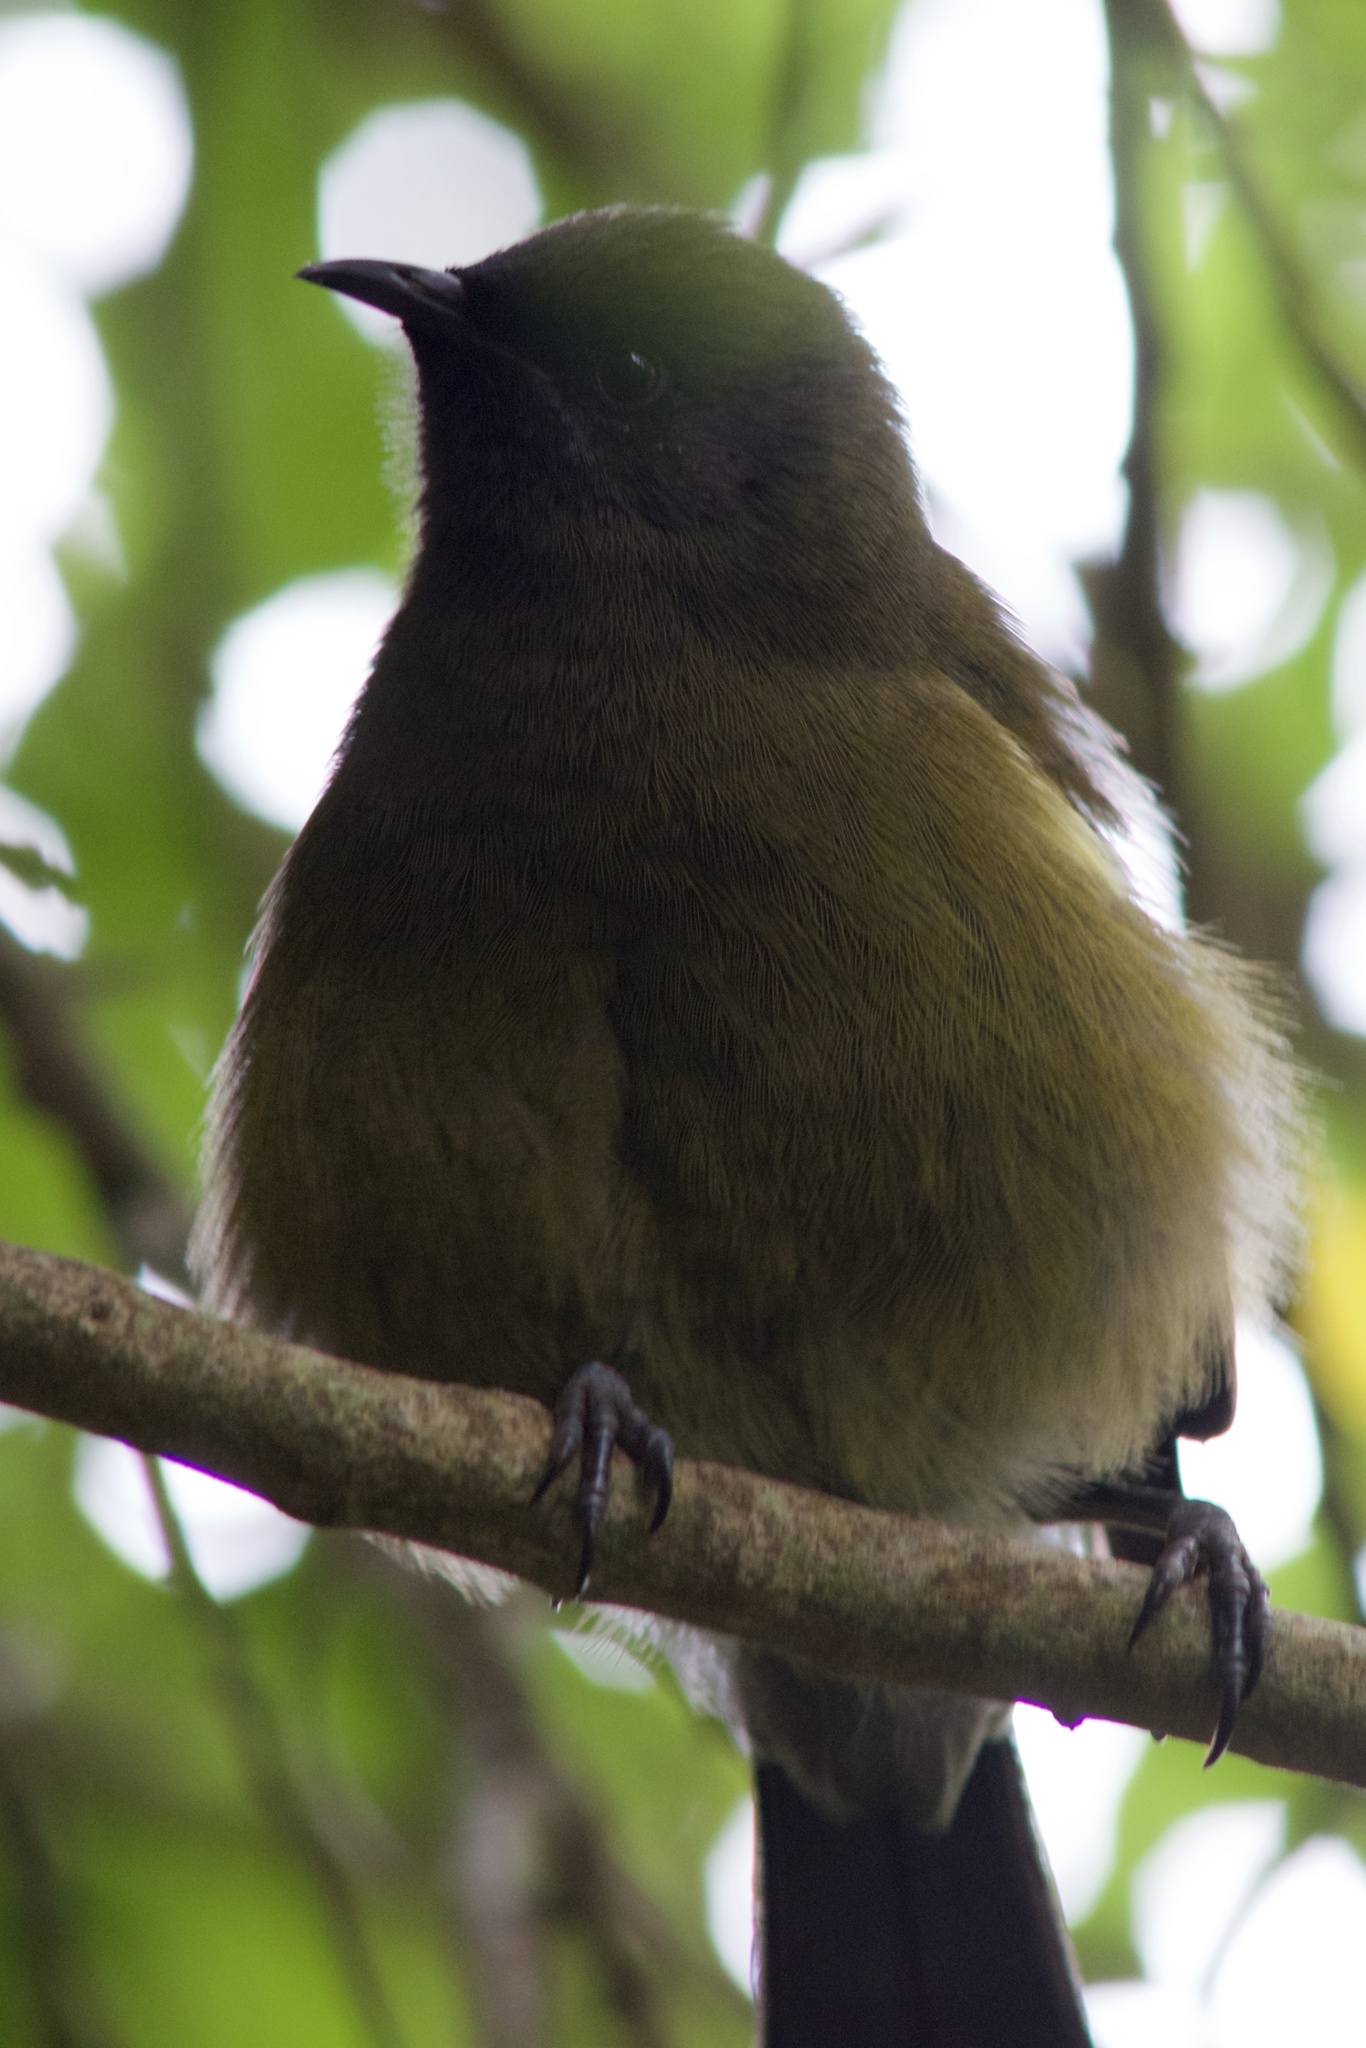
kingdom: Animalia
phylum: Chordata
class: Aves
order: Passeriformes
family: Meliphagidae
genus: Anthornis
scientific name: Anthornis melanura
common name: New zealand bellbird
